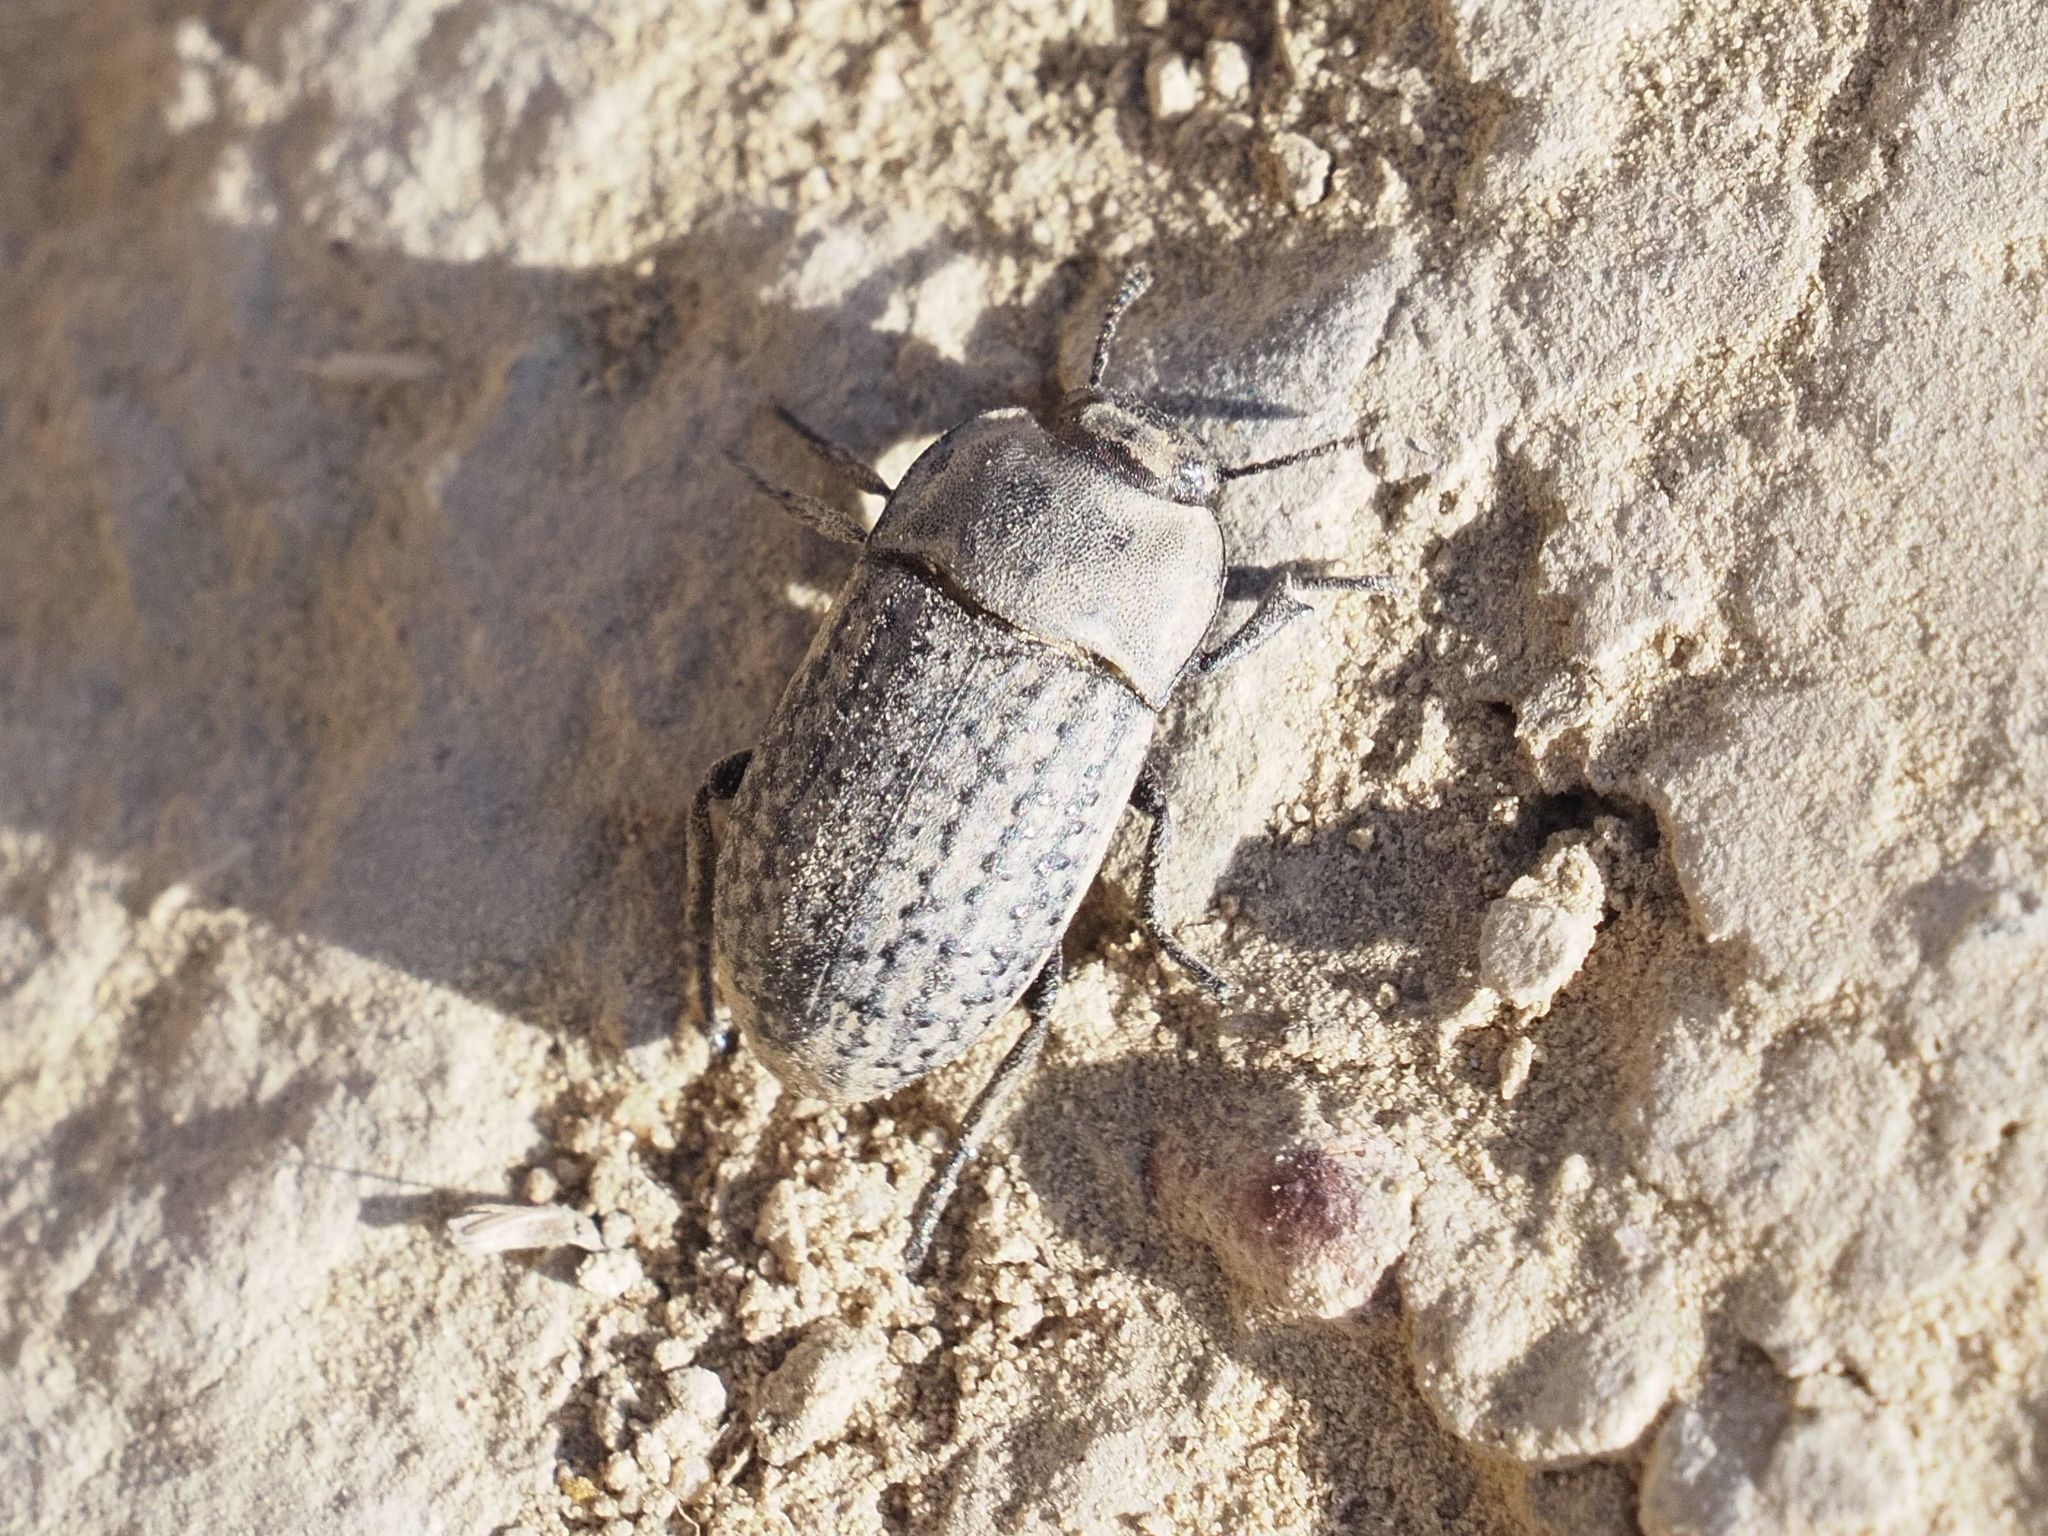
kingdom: Animalia
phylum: Arthropoda
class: Insecta
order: Coleoptera
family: Tenebrionidae
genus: Opatrum
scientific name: Opatrum sabulosum
